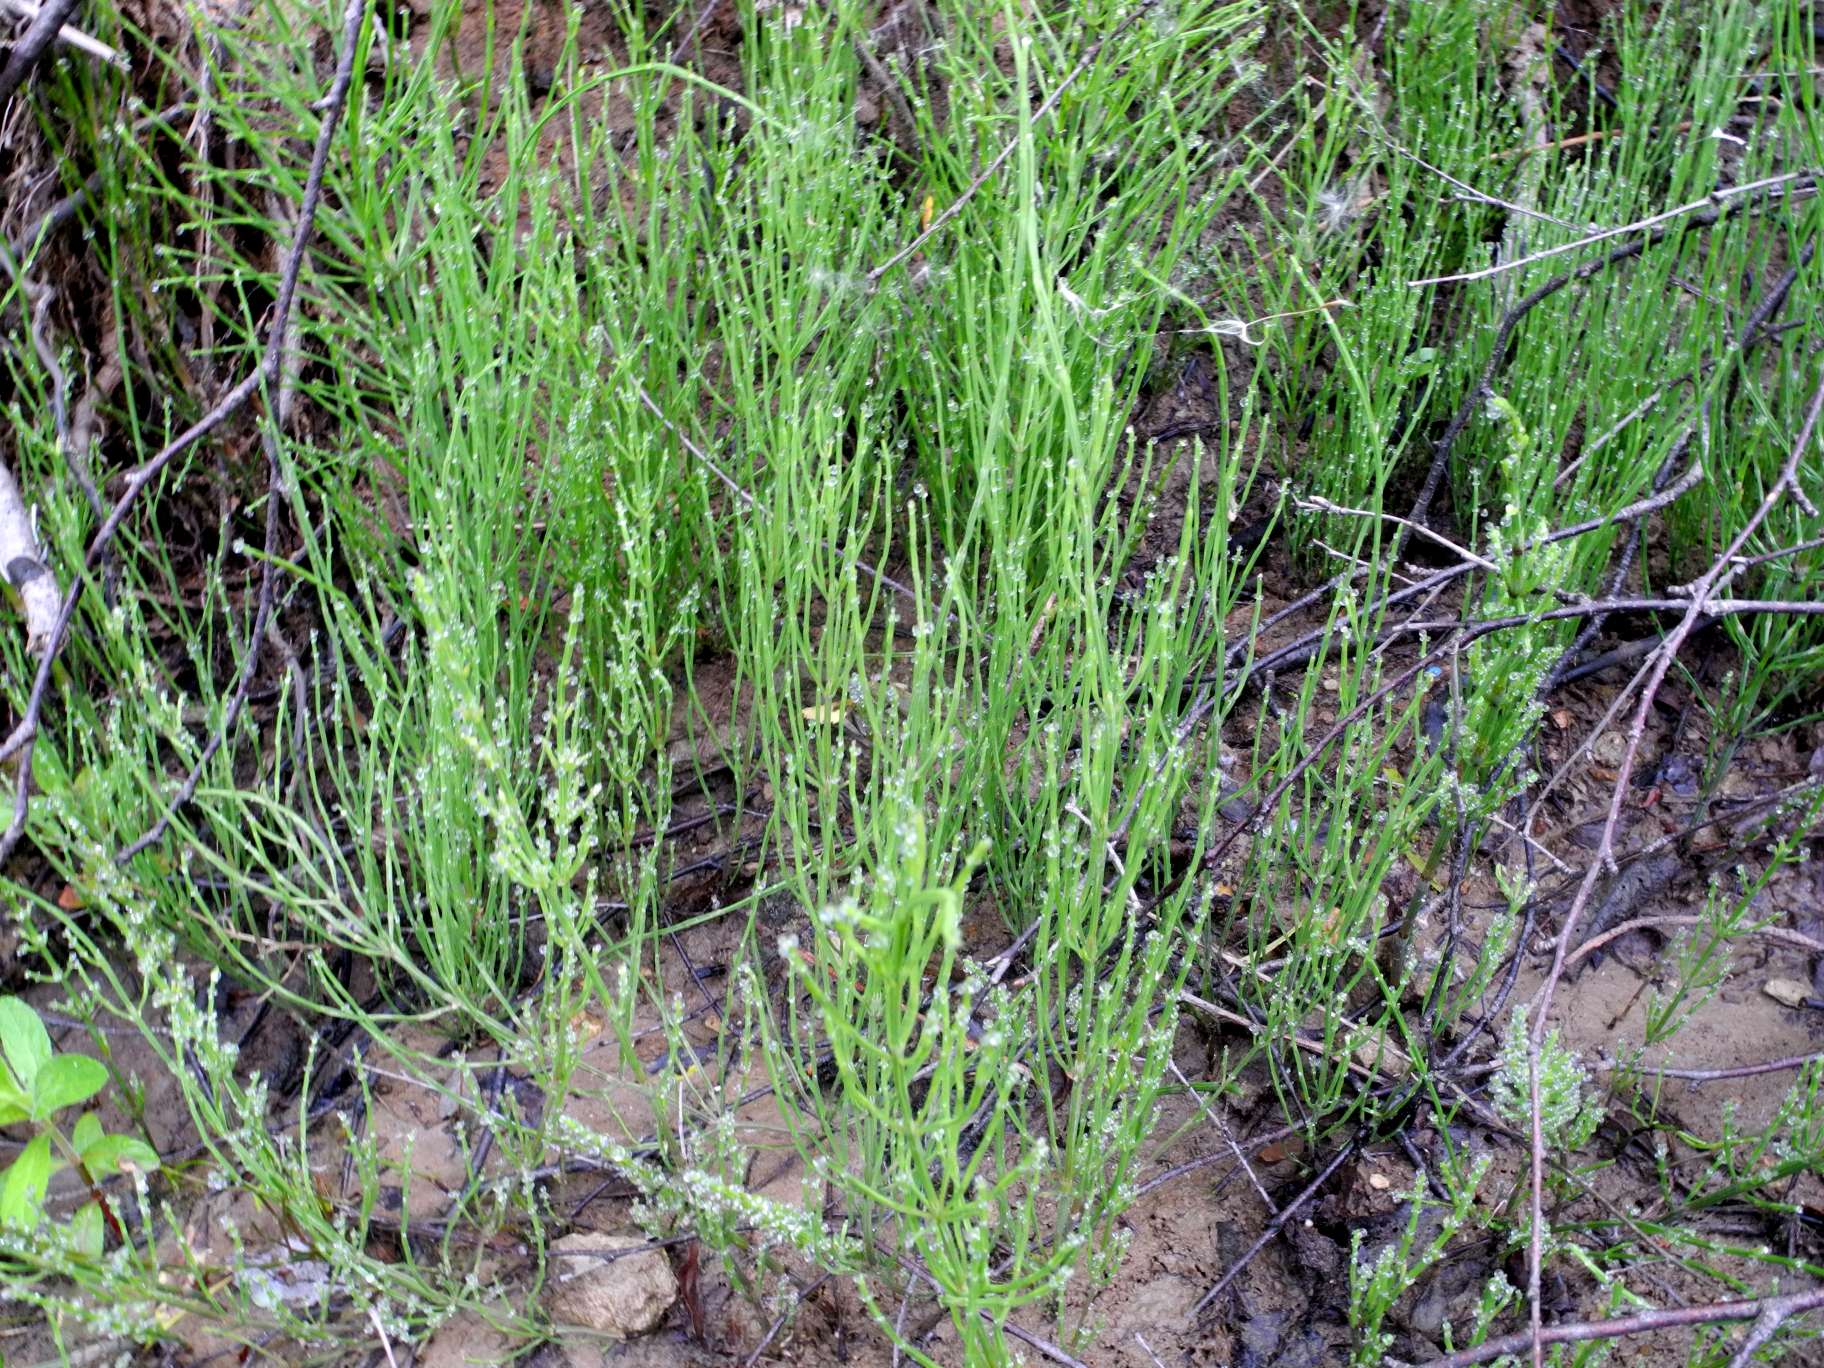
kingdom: Plantae
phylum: Tracheophyta
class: Polypodiopsida
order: Equisetales
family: Equisetaceae
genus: Equisetum
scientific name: Equisetum arvense
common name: Field horsetail
